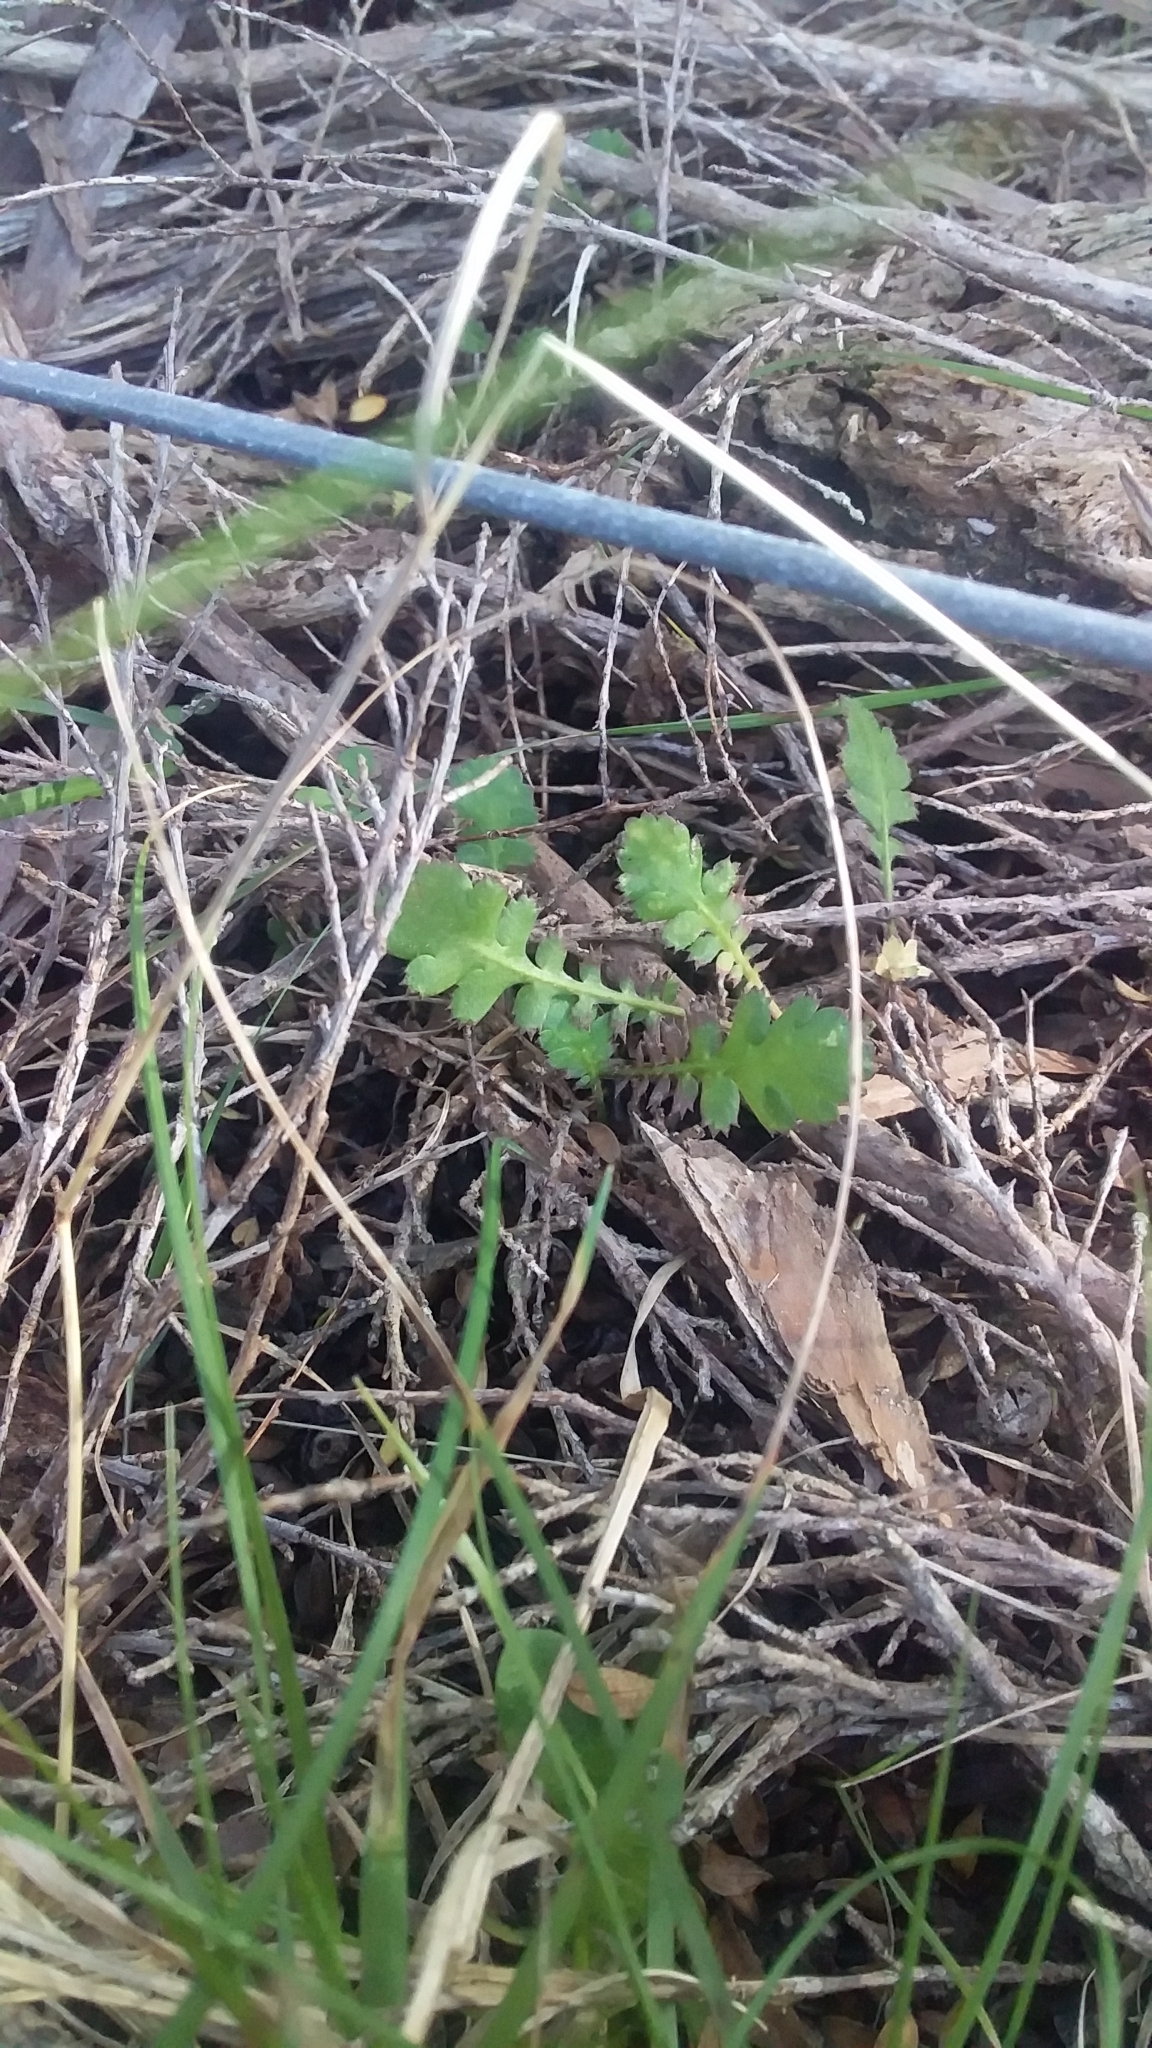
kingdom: Plantae
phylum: Tracheophyta
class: Magnoliopsida
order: Asterales
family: Asteraceae
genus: Leptinella
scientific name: Leptinella squalida
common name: New zealand brass-buttons
